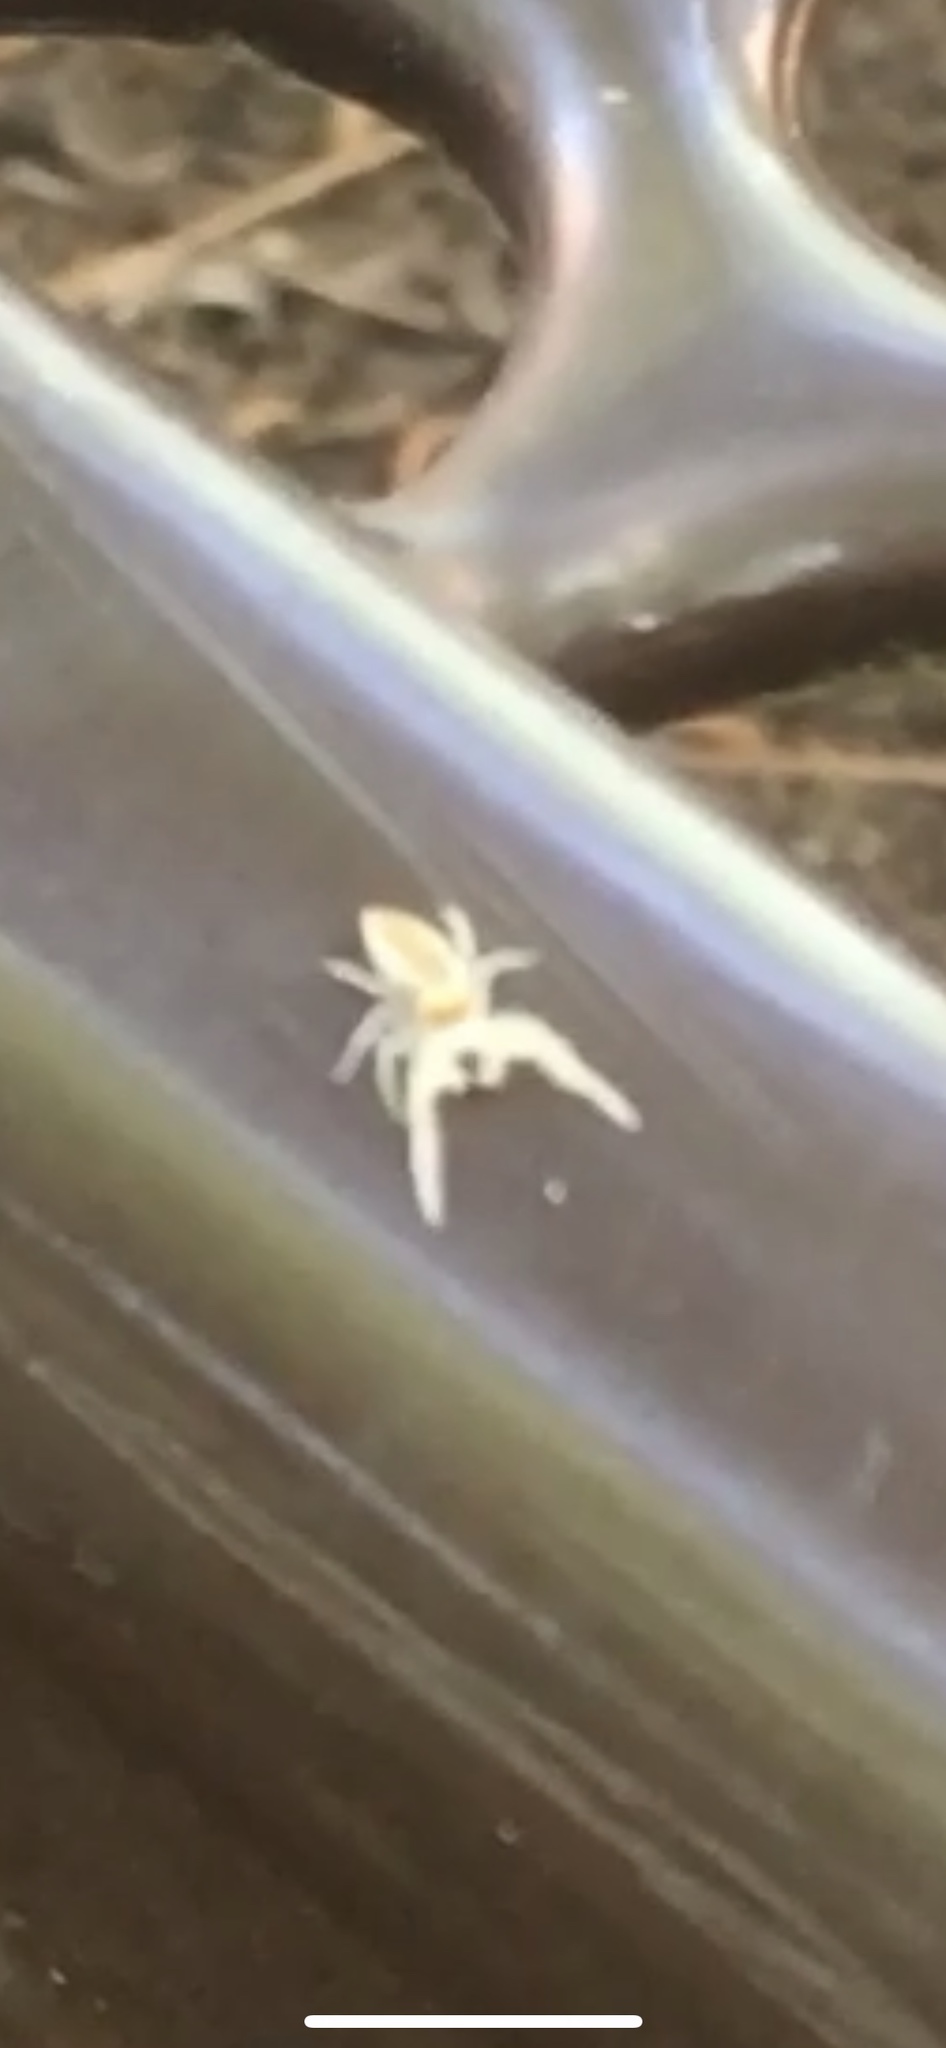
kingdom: Animalia
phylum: Arthropoda
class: Arachnida
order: Araneae
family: Salticidae
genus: Hentzia
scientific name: Hentzia mitrata
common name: White-jawed jumping spider
